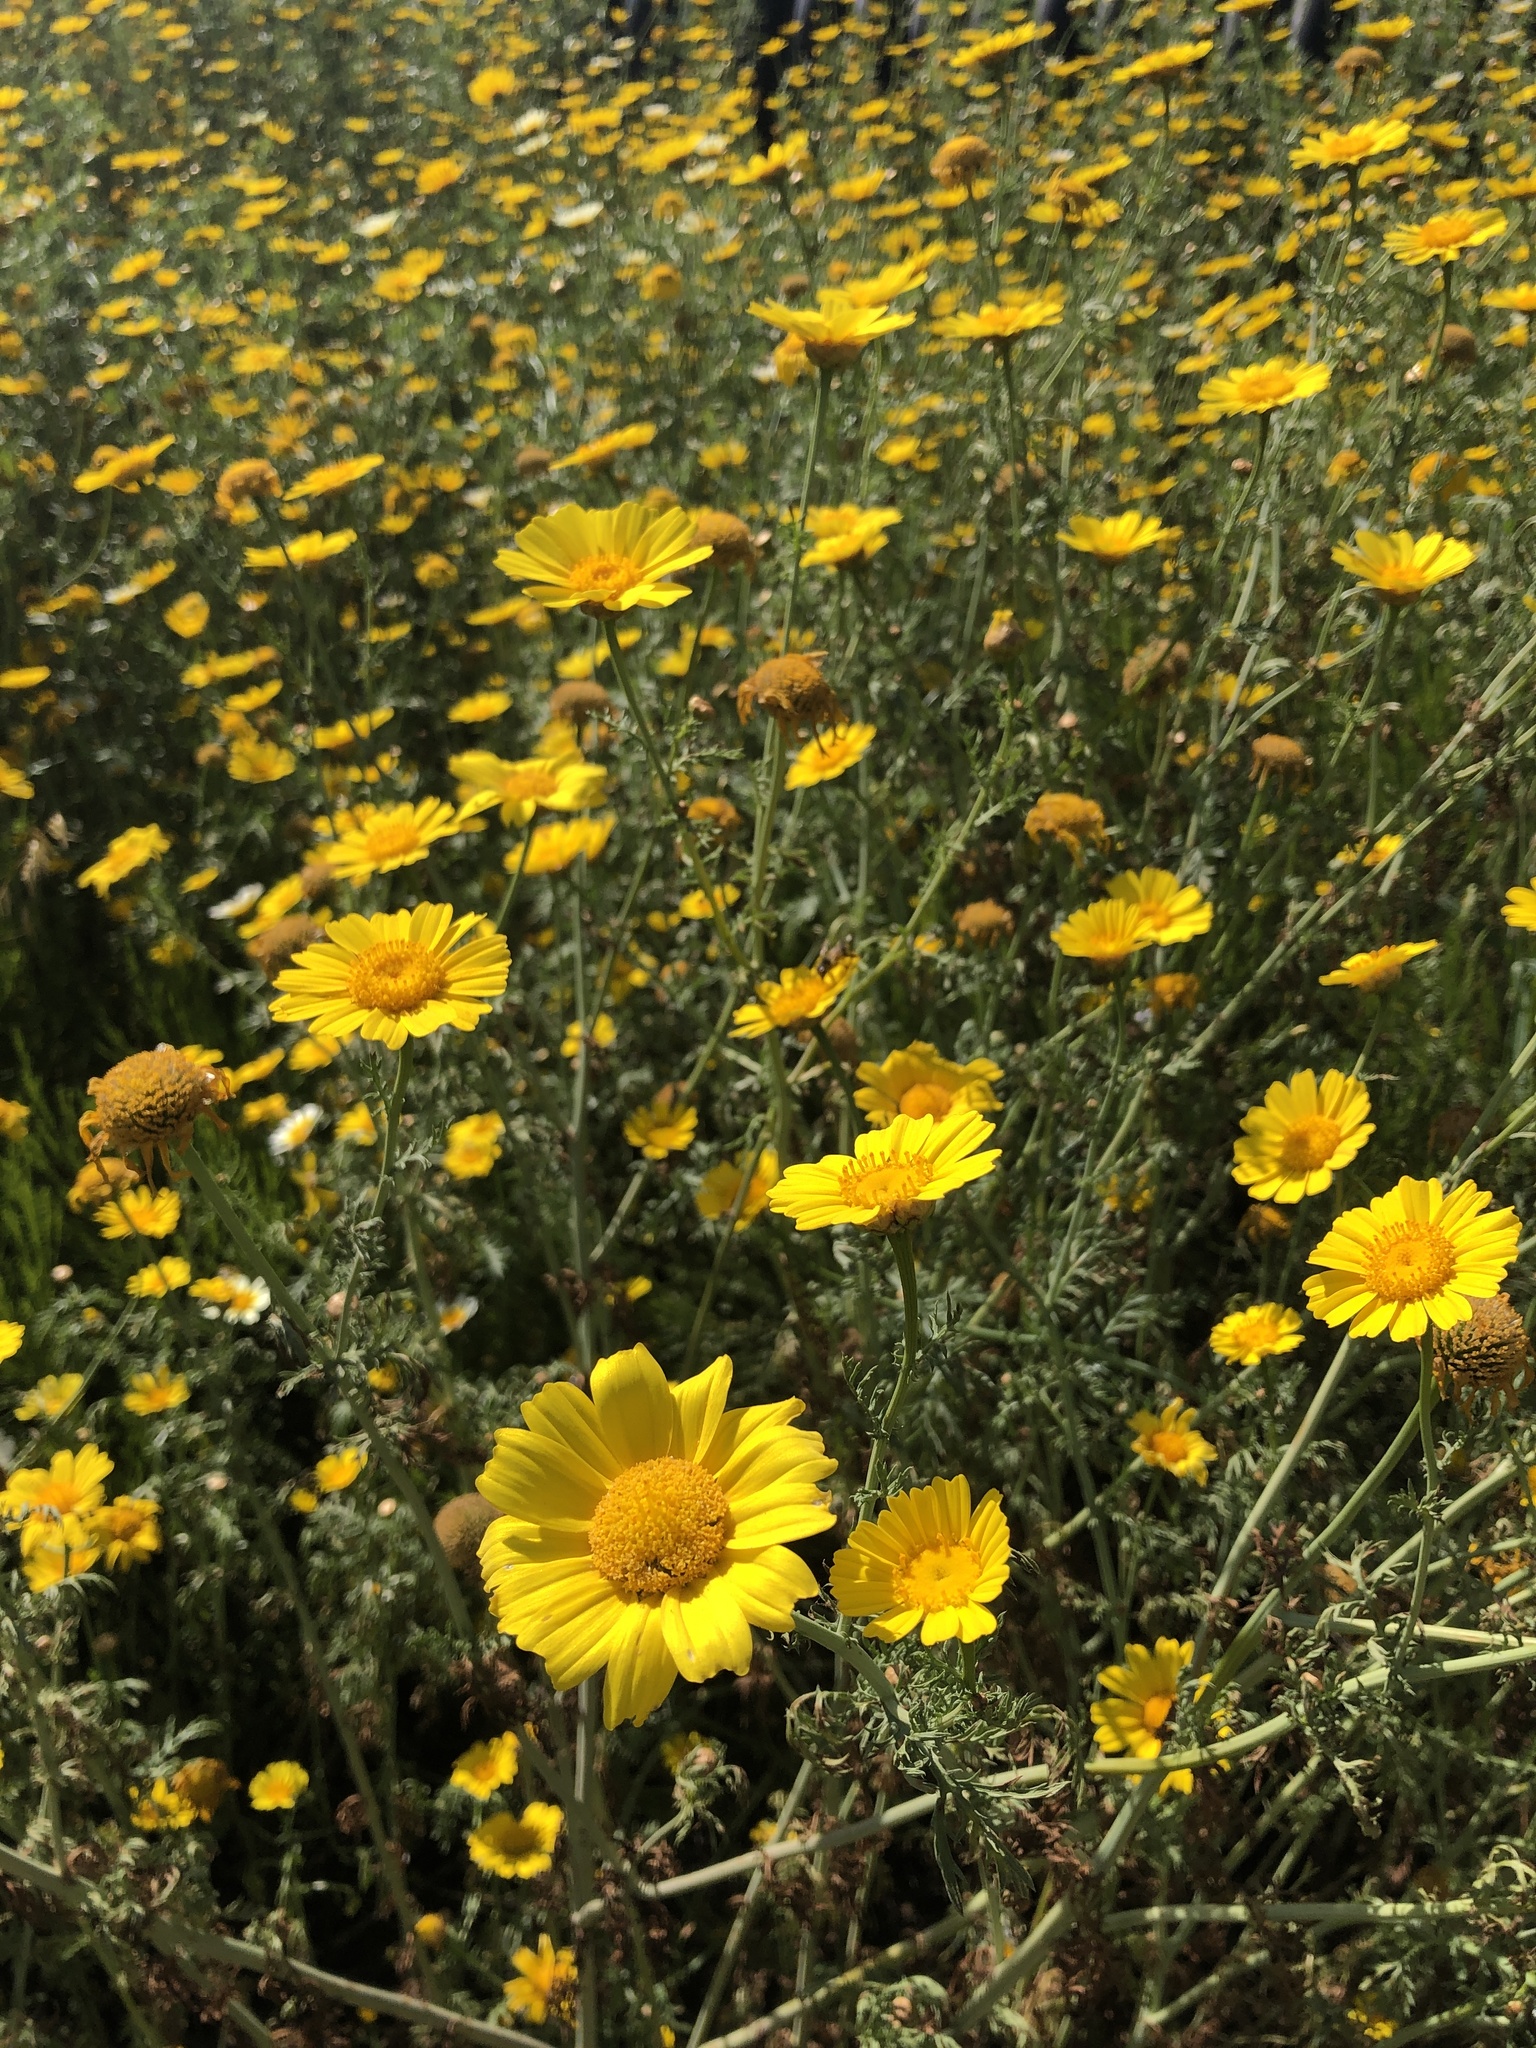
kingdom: Plantae
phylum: Tracheophyta
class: Magnoliopsida
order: Asterales
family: Asteraceae
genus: Glebionis
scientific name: Glebionis coronaria
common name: Crowndaisy
